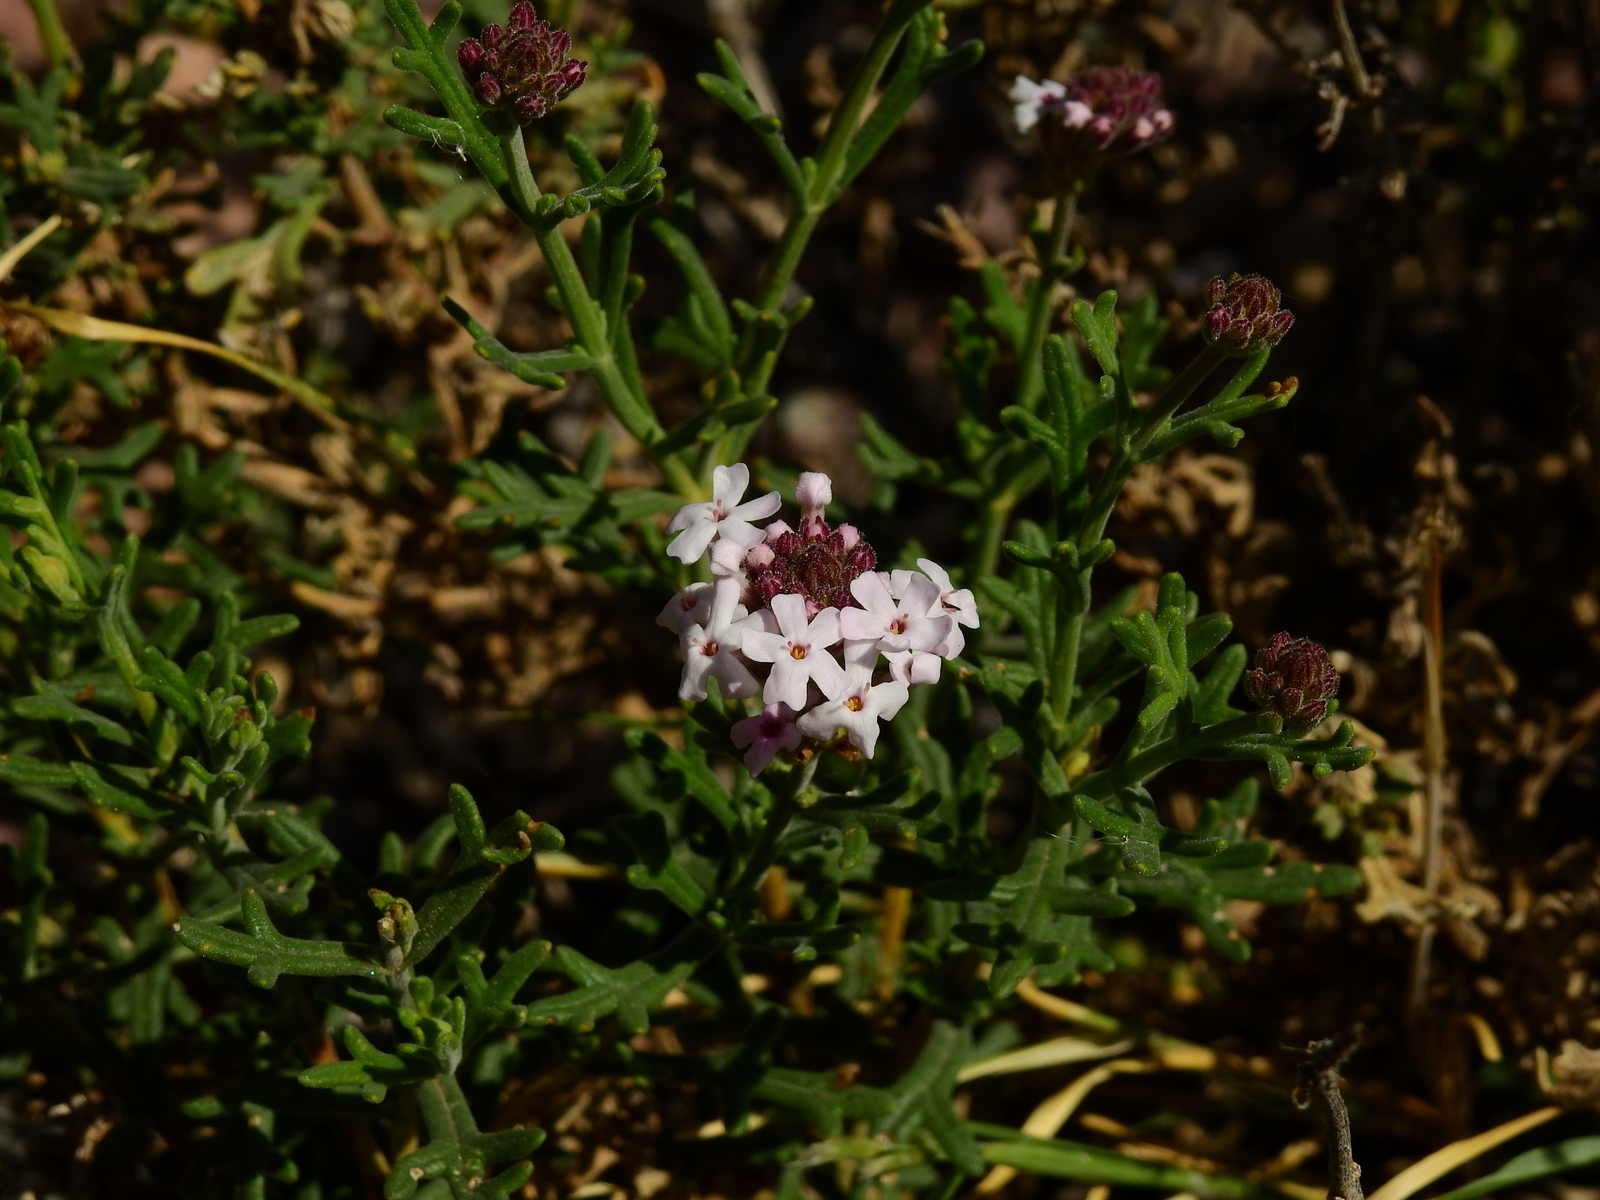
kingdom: Plantae
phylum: Tracheophyta
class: Magnoliopsida
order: Lamiales
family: Verbenaceae
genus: Junellia
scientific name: Junellia crithmifolia
